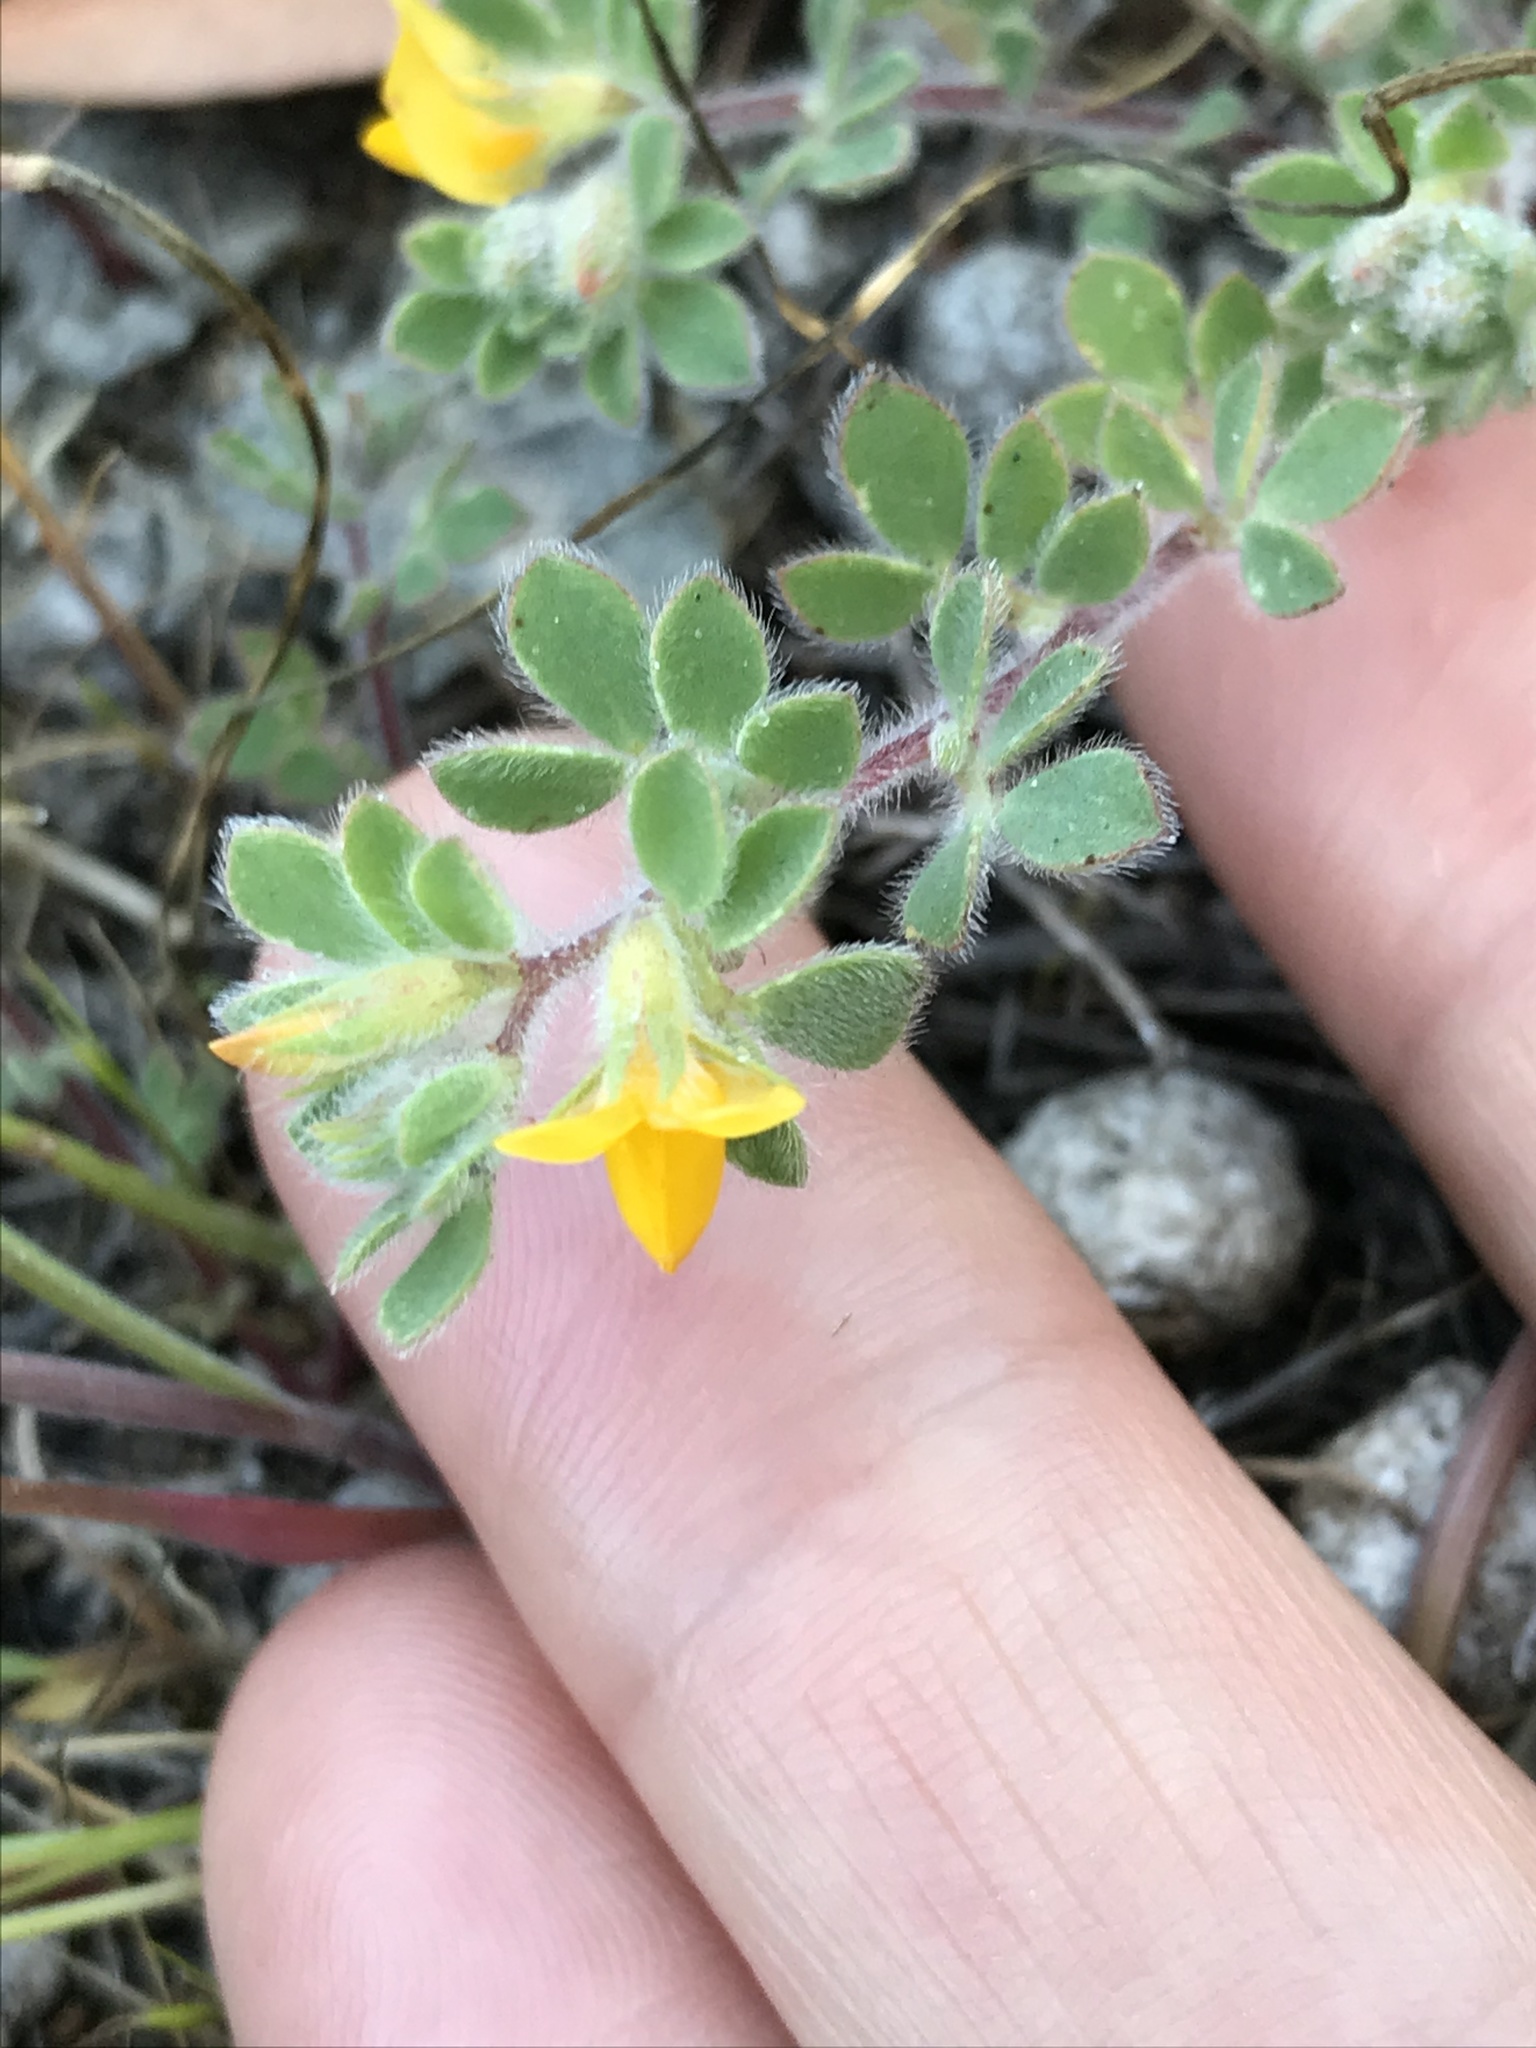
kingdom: Plantae
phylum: Tracheophyta
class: Magnoliopsida
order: Fabales
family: Fabaceae
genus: Acmispon
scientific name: Acmispon brachycarpus
